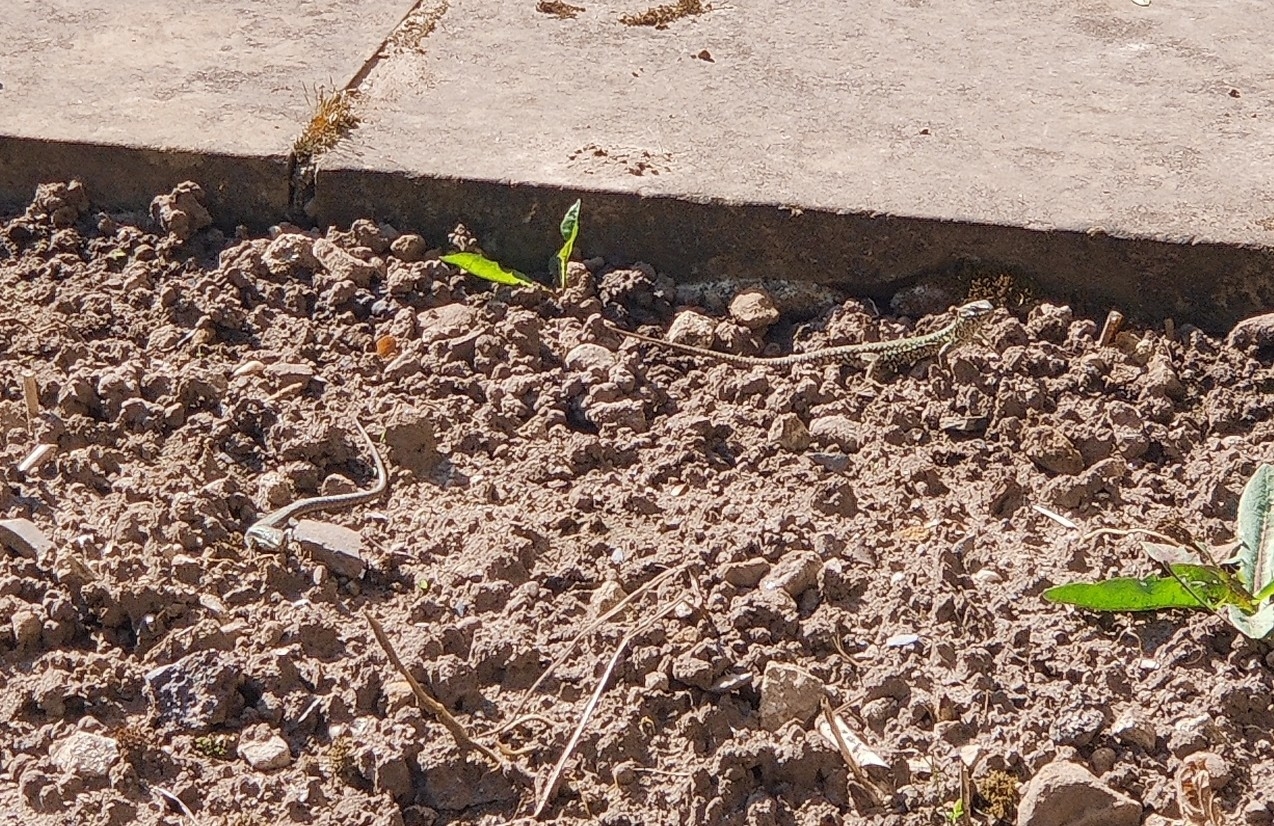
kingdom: Animalia
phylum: Chordata
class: Squamata
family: Lacertidae
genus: Podarcis
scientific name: Podarcis muralis
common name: Common wall lizard
